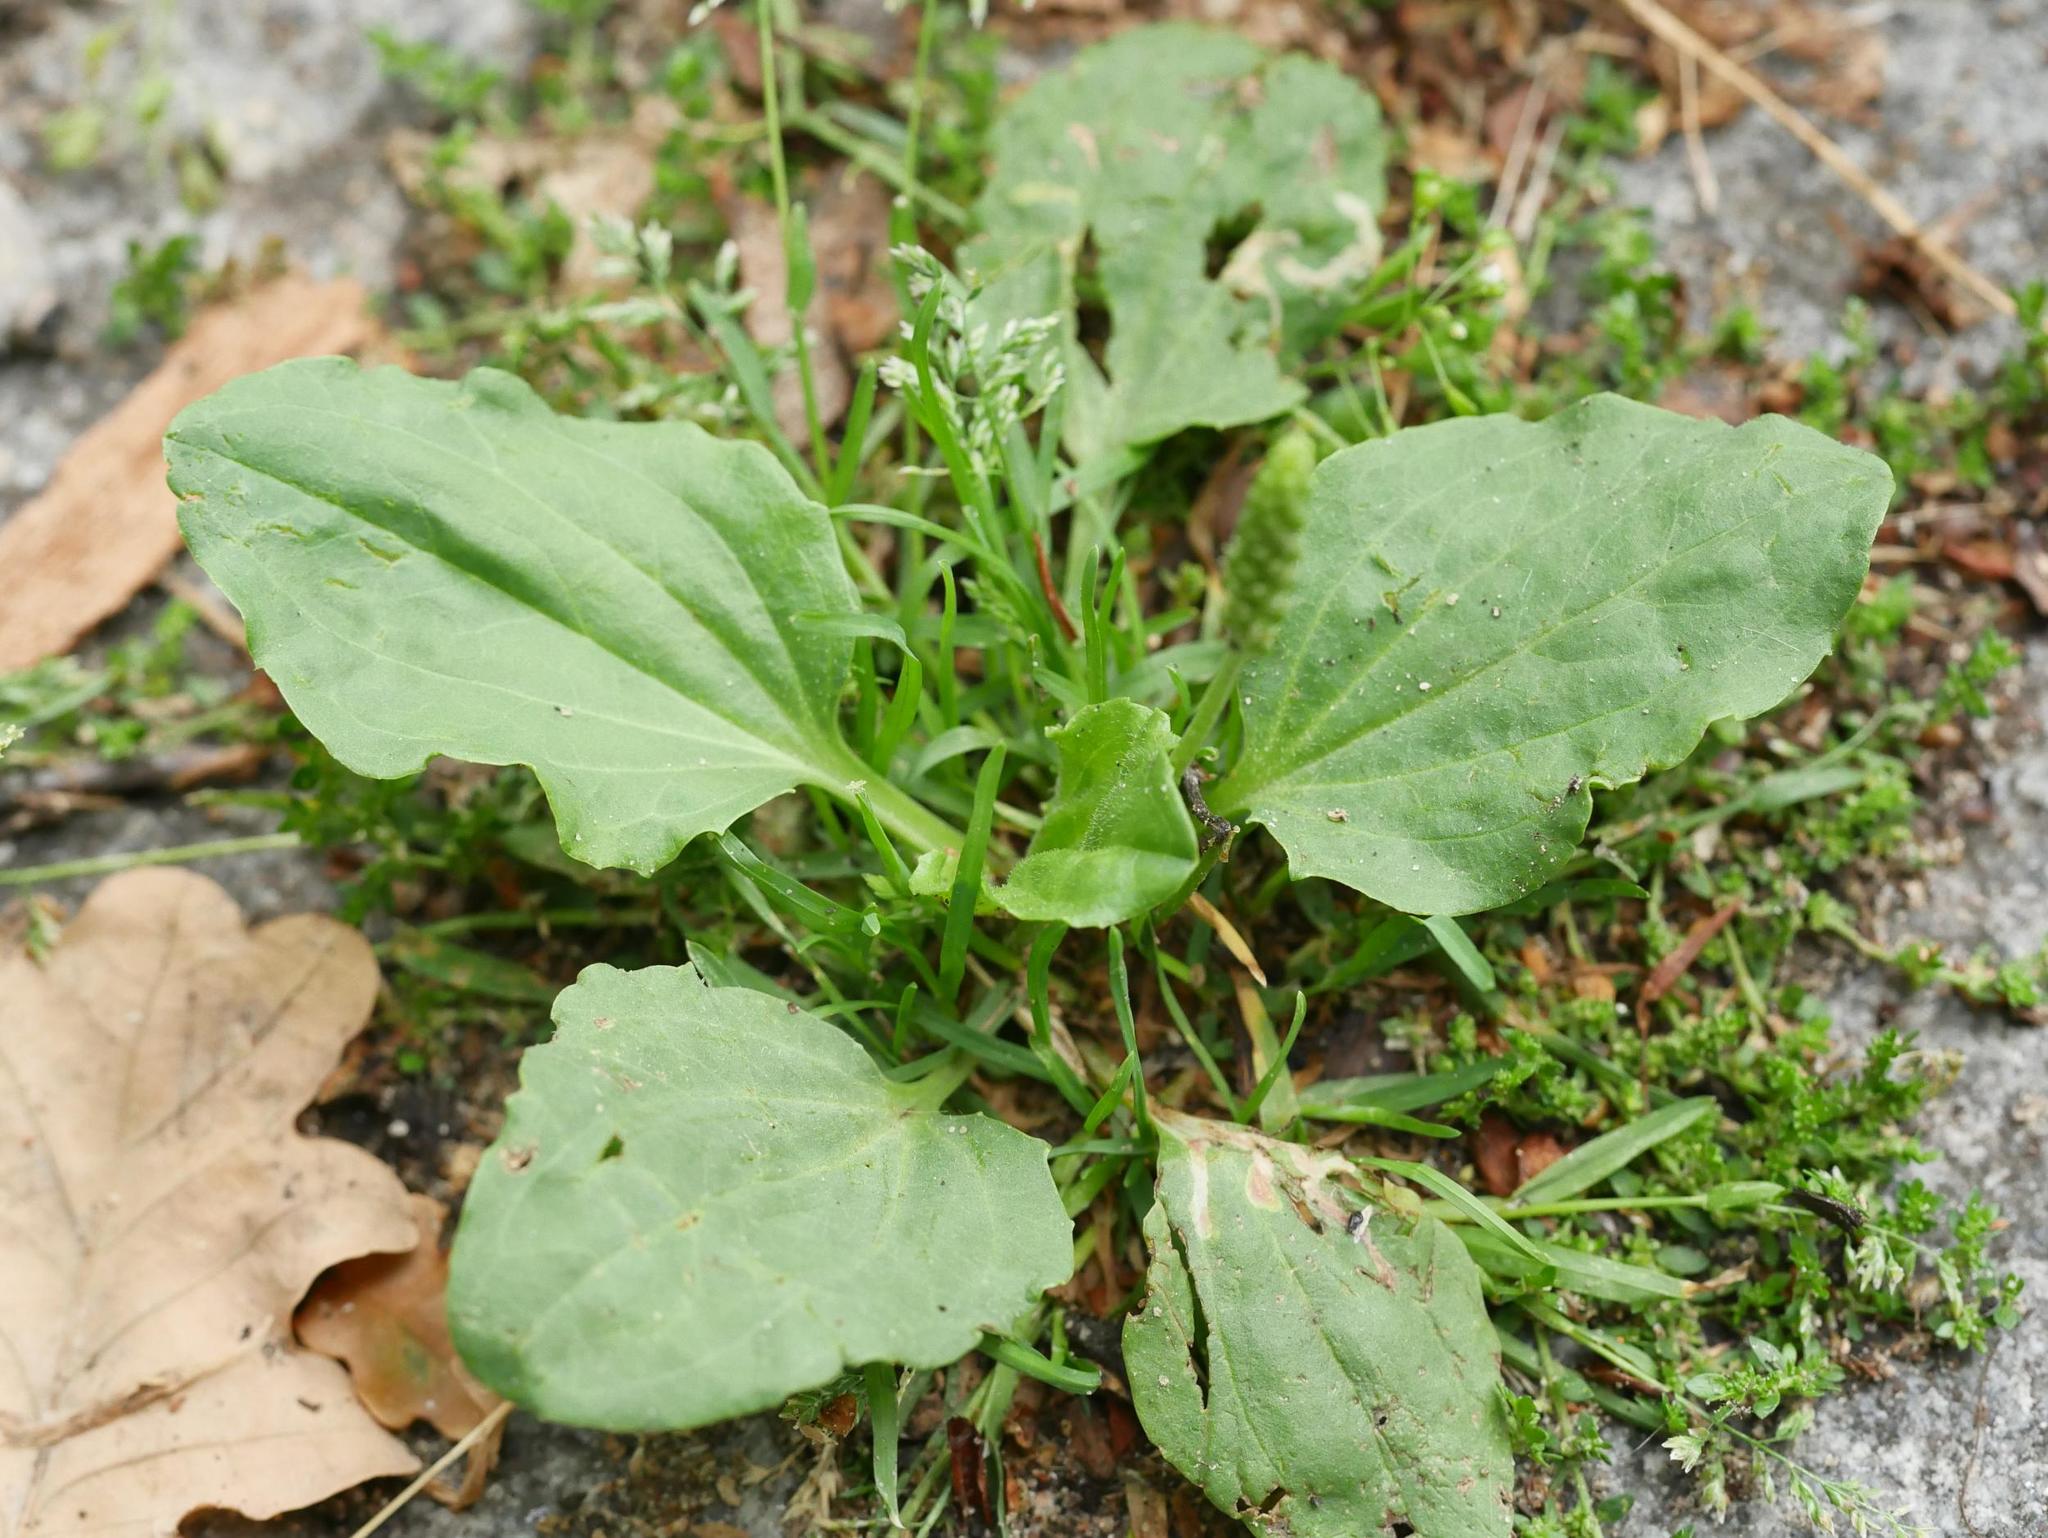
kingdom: Plantae
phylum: Tracheophyta
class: Magnoliopsida
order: Lamiales
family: Plantaginaceae
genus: Plantago
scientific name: Plantago major
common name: Common plantain
